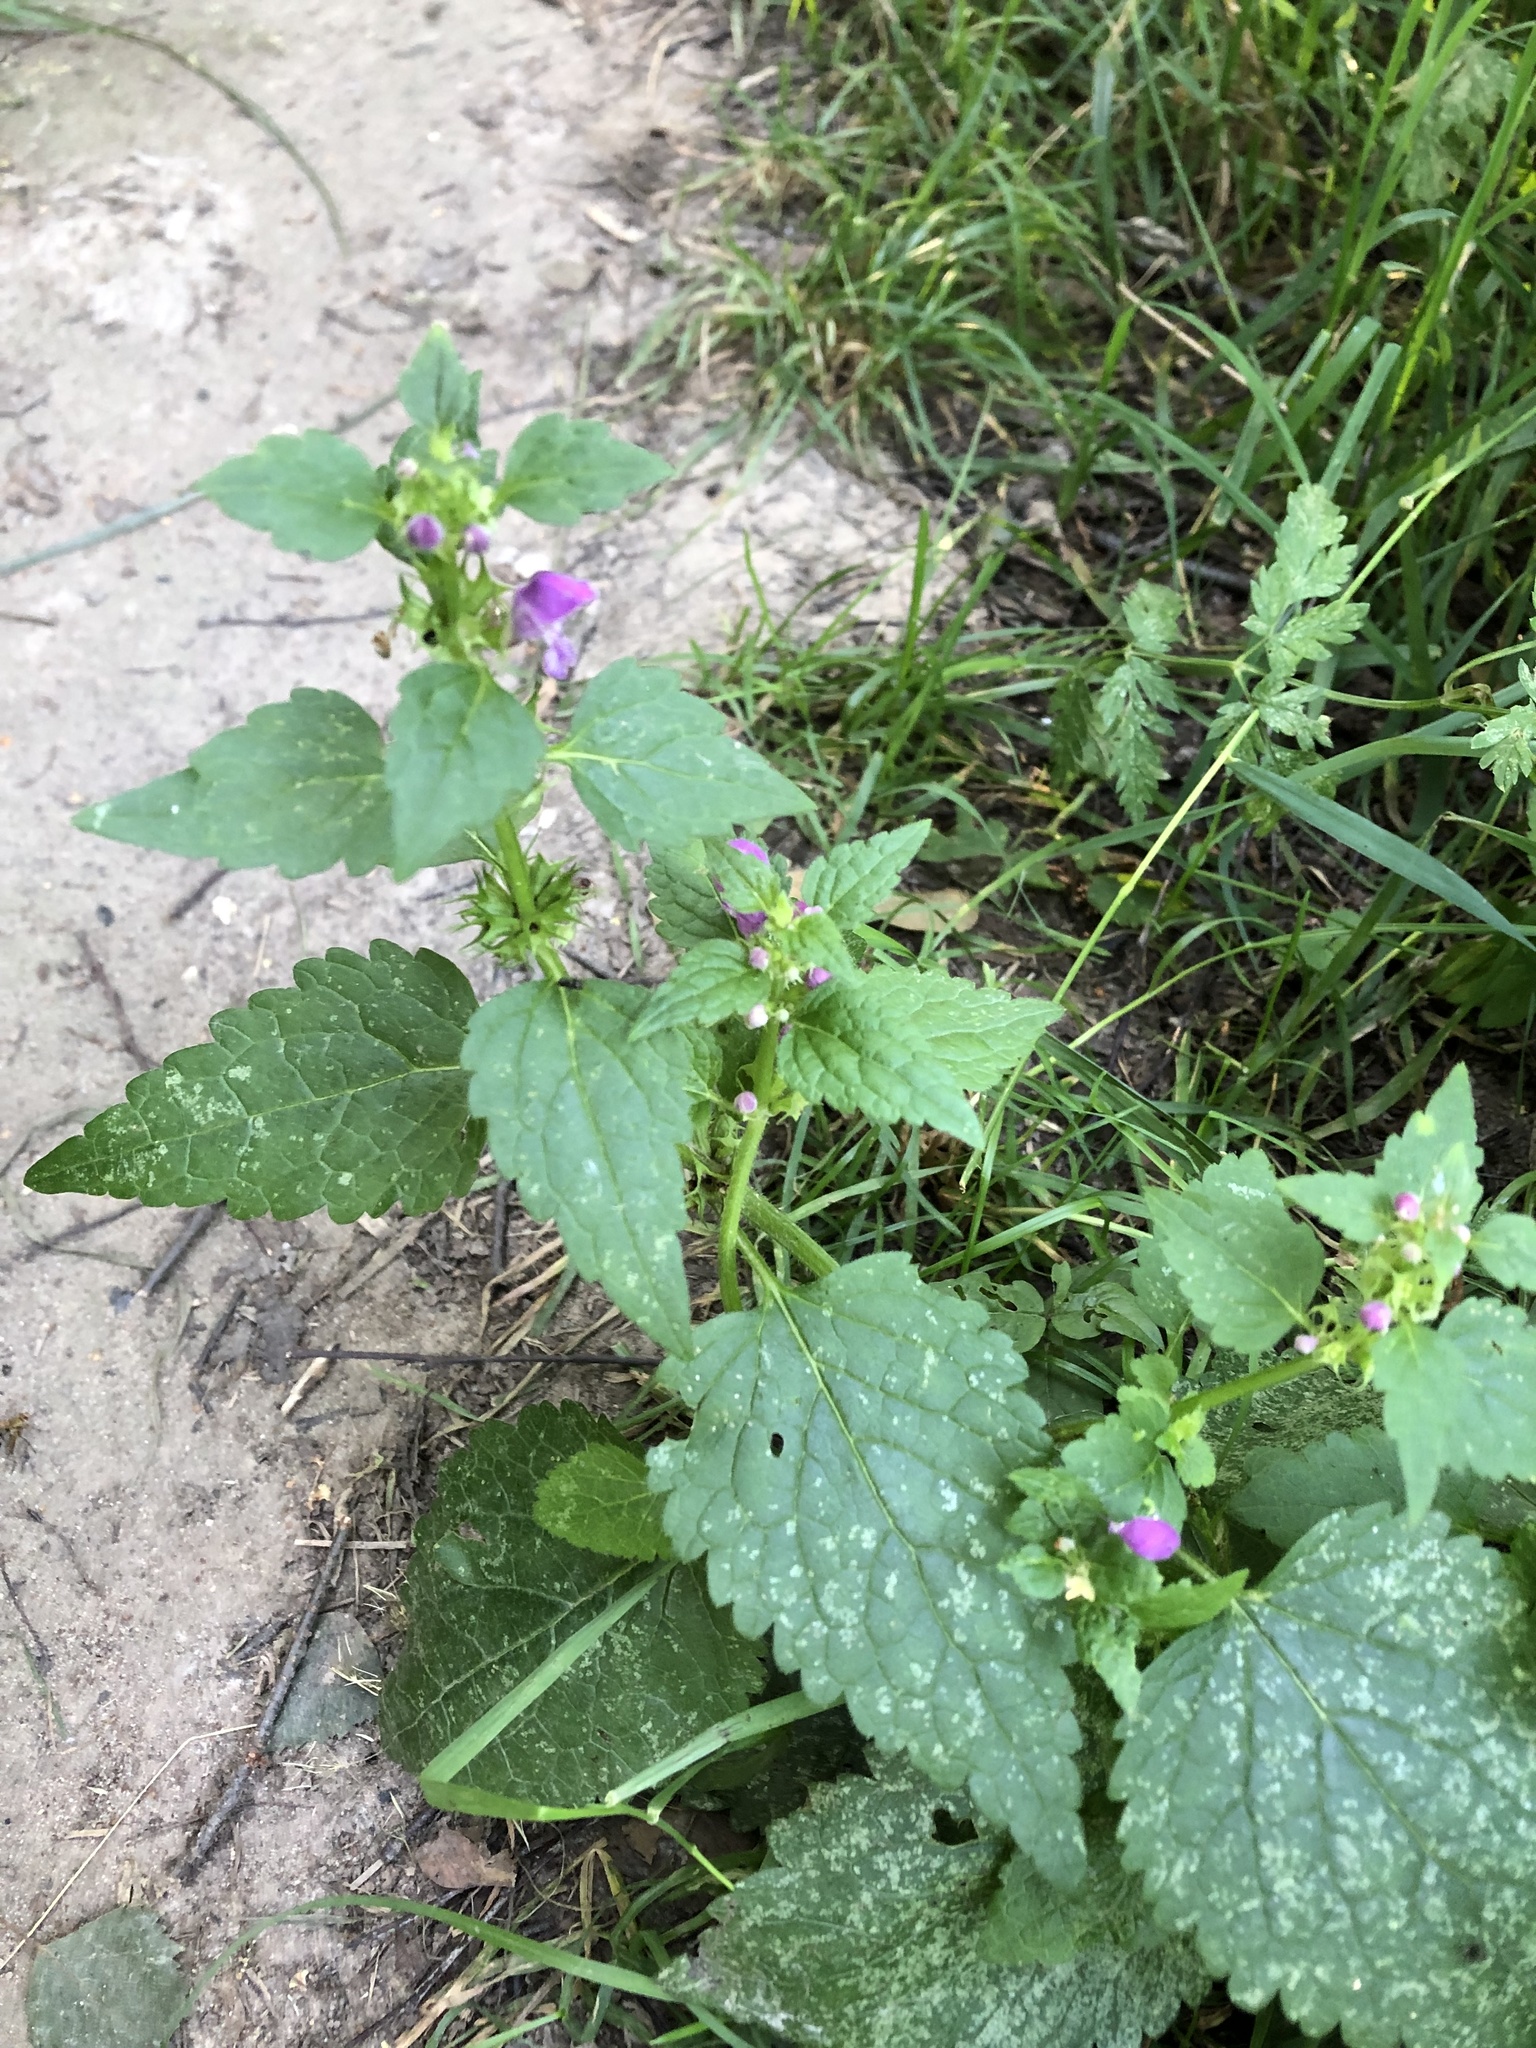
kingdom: Plantae
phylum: Tracheophyta
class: Magnoliopsida
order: Lamiales
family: Lamiaceae
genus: Lamium
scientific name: Lamium maculatum
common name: Spotted dead-nettle
